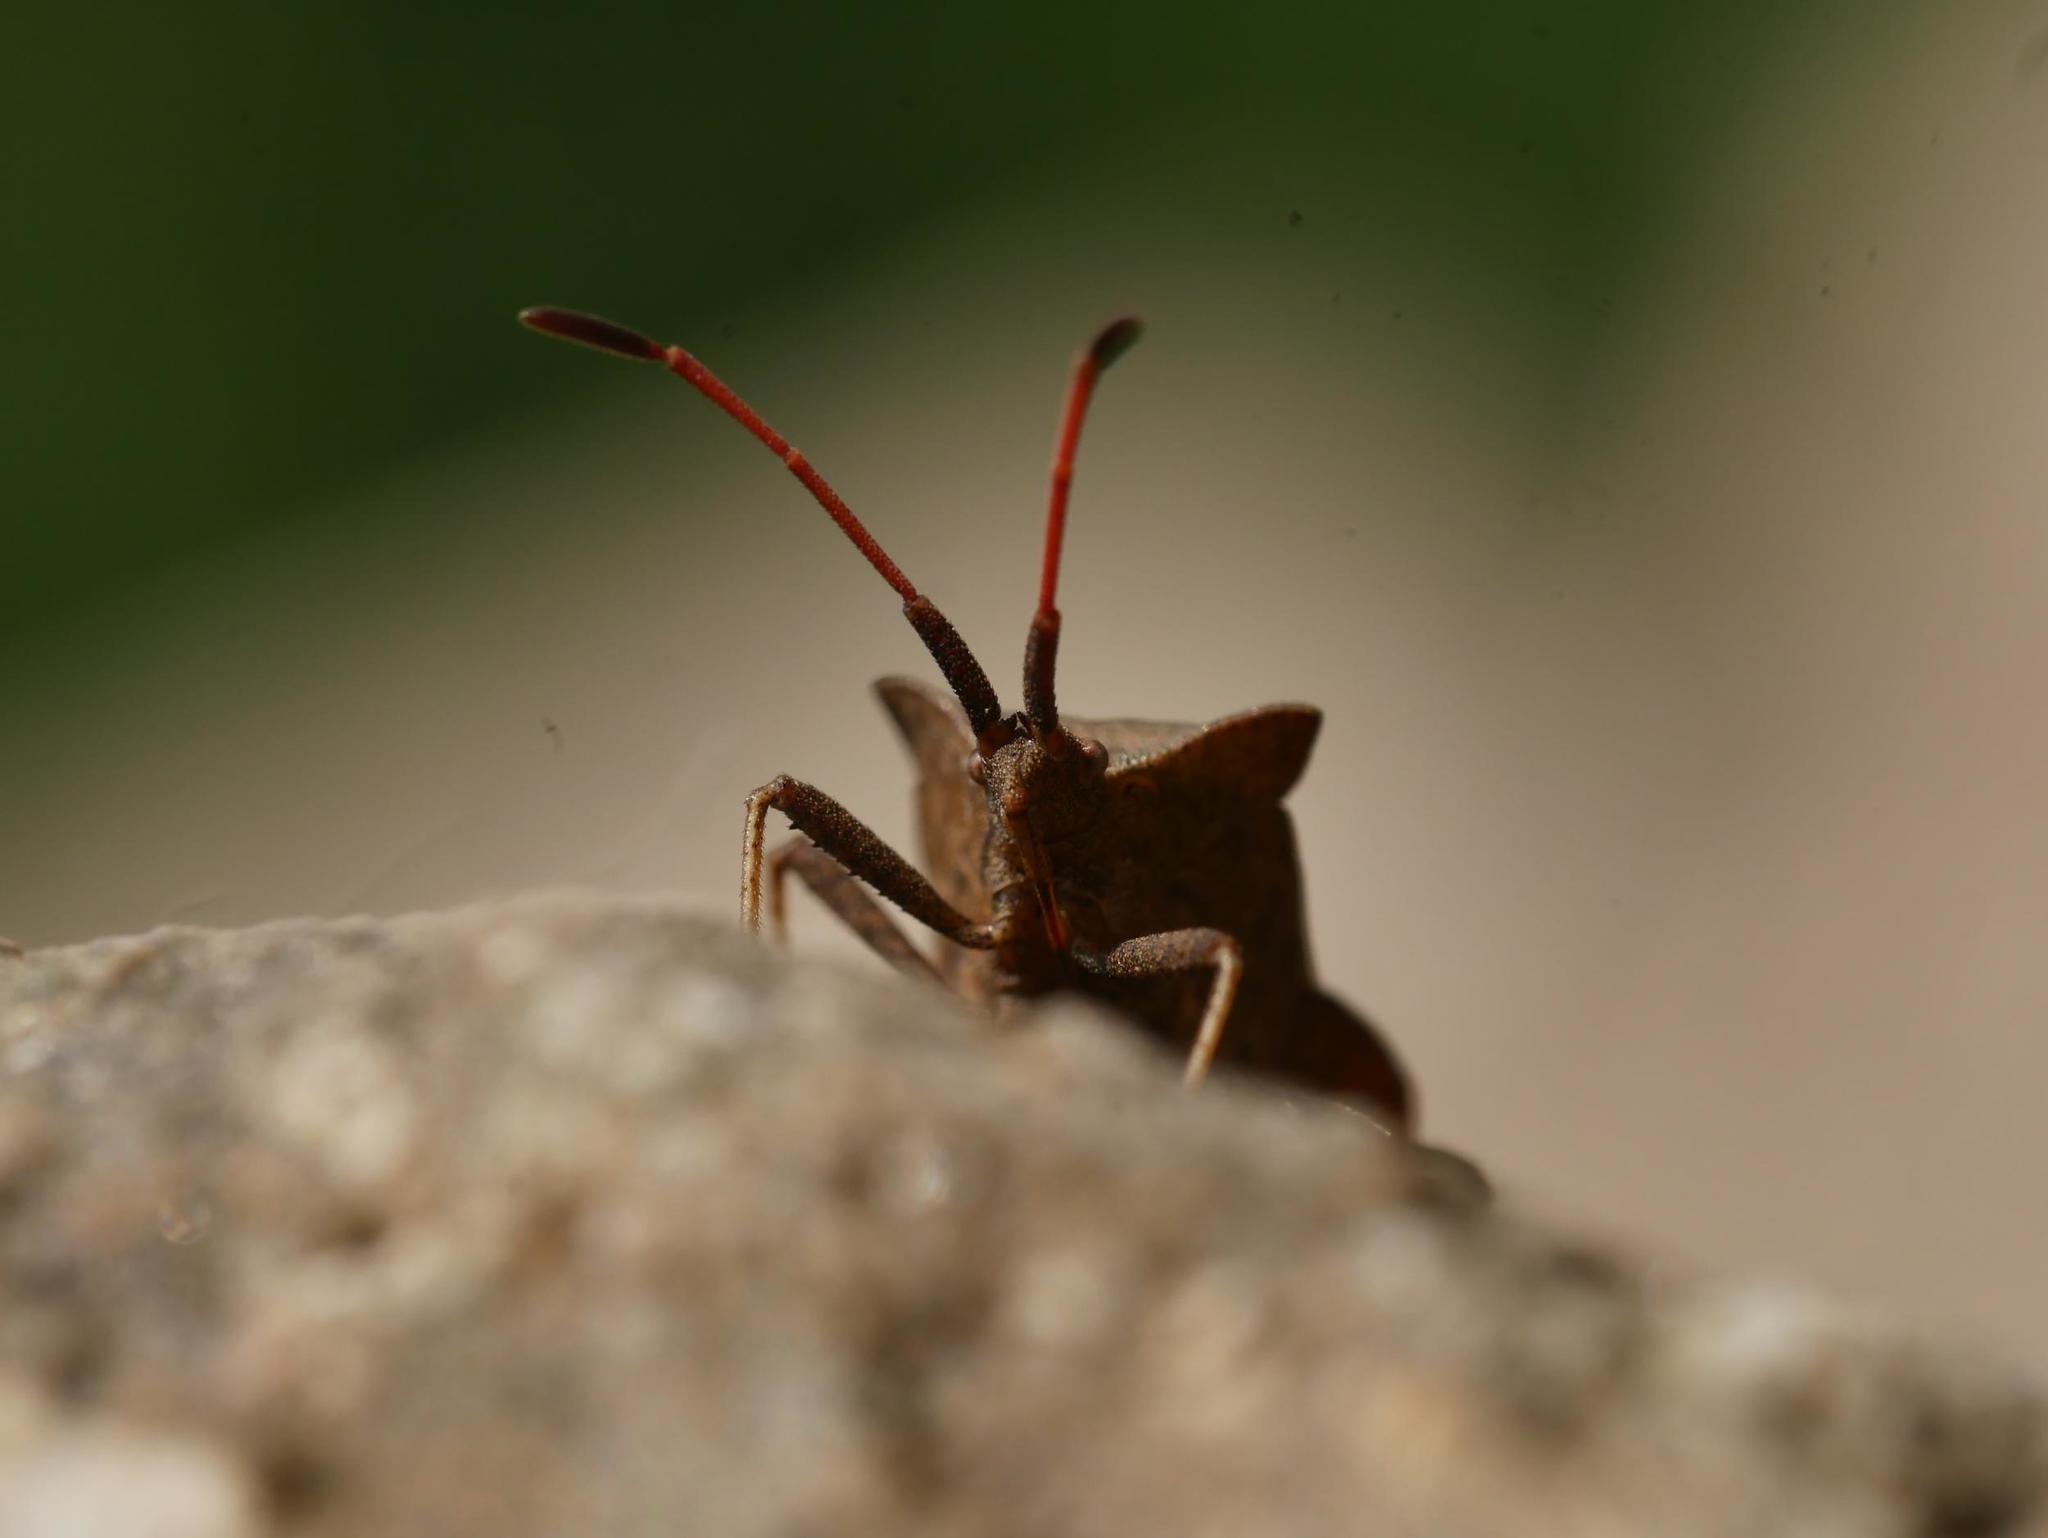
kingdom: Animalia
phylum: Arthropoda
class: Insecta
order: Hemiptera
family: Coreidae
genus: Coreus
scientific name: Coreus marginatus
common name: Dock bug
